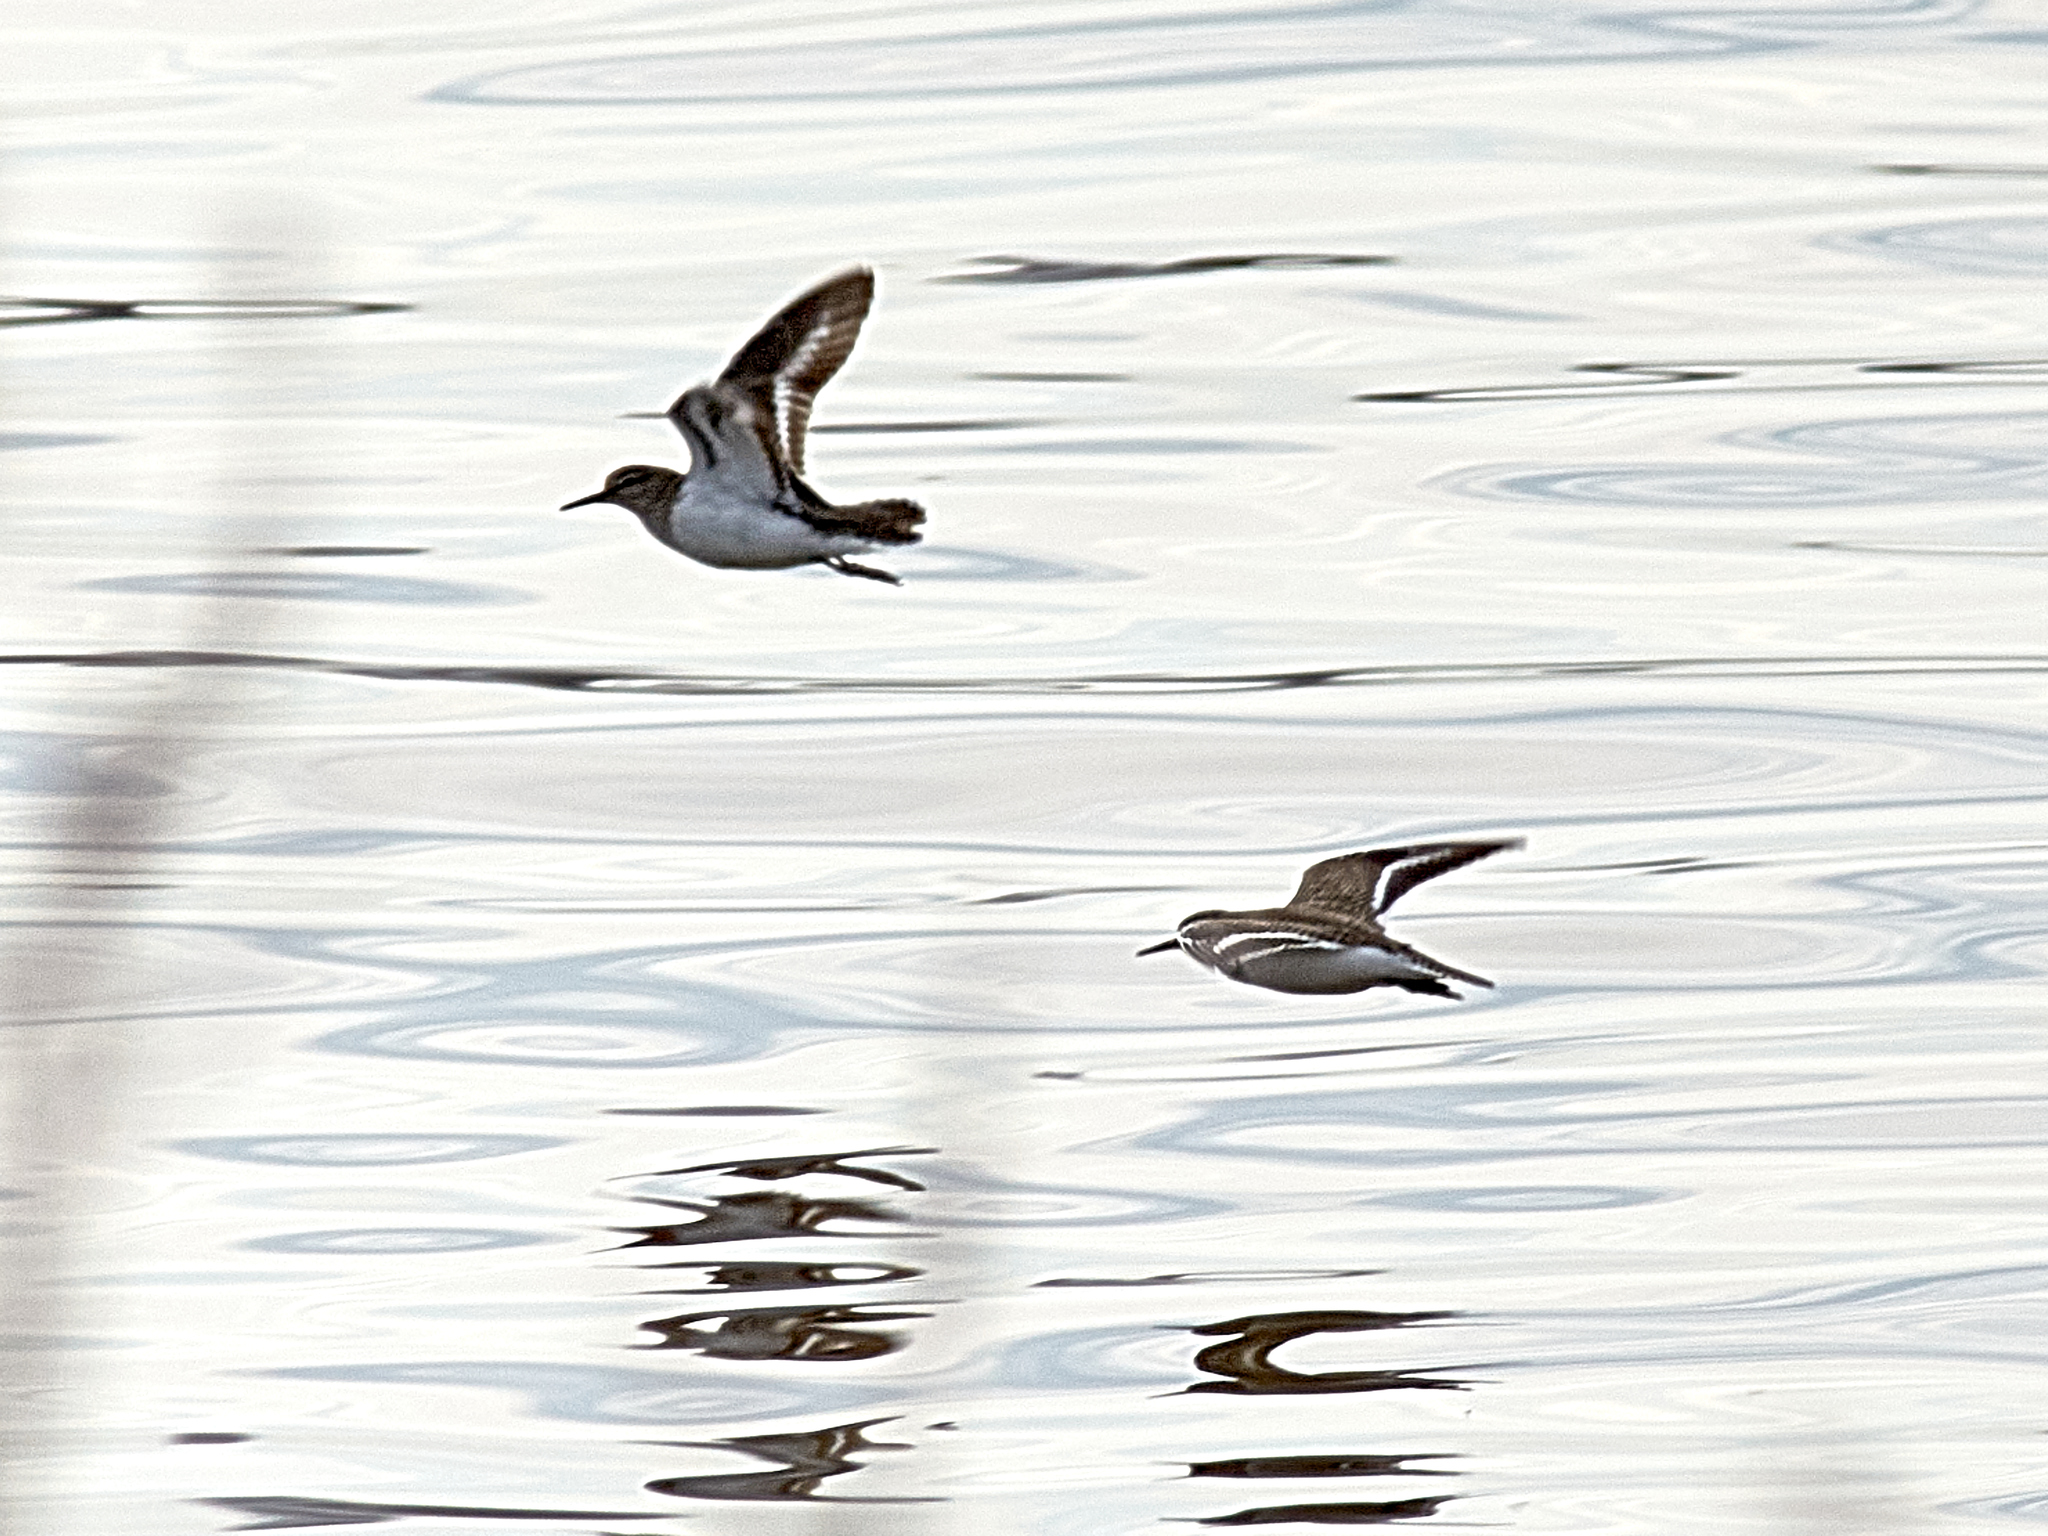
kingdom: Animalia
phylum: Chordata
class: Aves
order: Charadriiformes
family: Scolopacidae
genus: Actitis
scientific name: Actitis hypoleucos
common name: Common sandpiper
